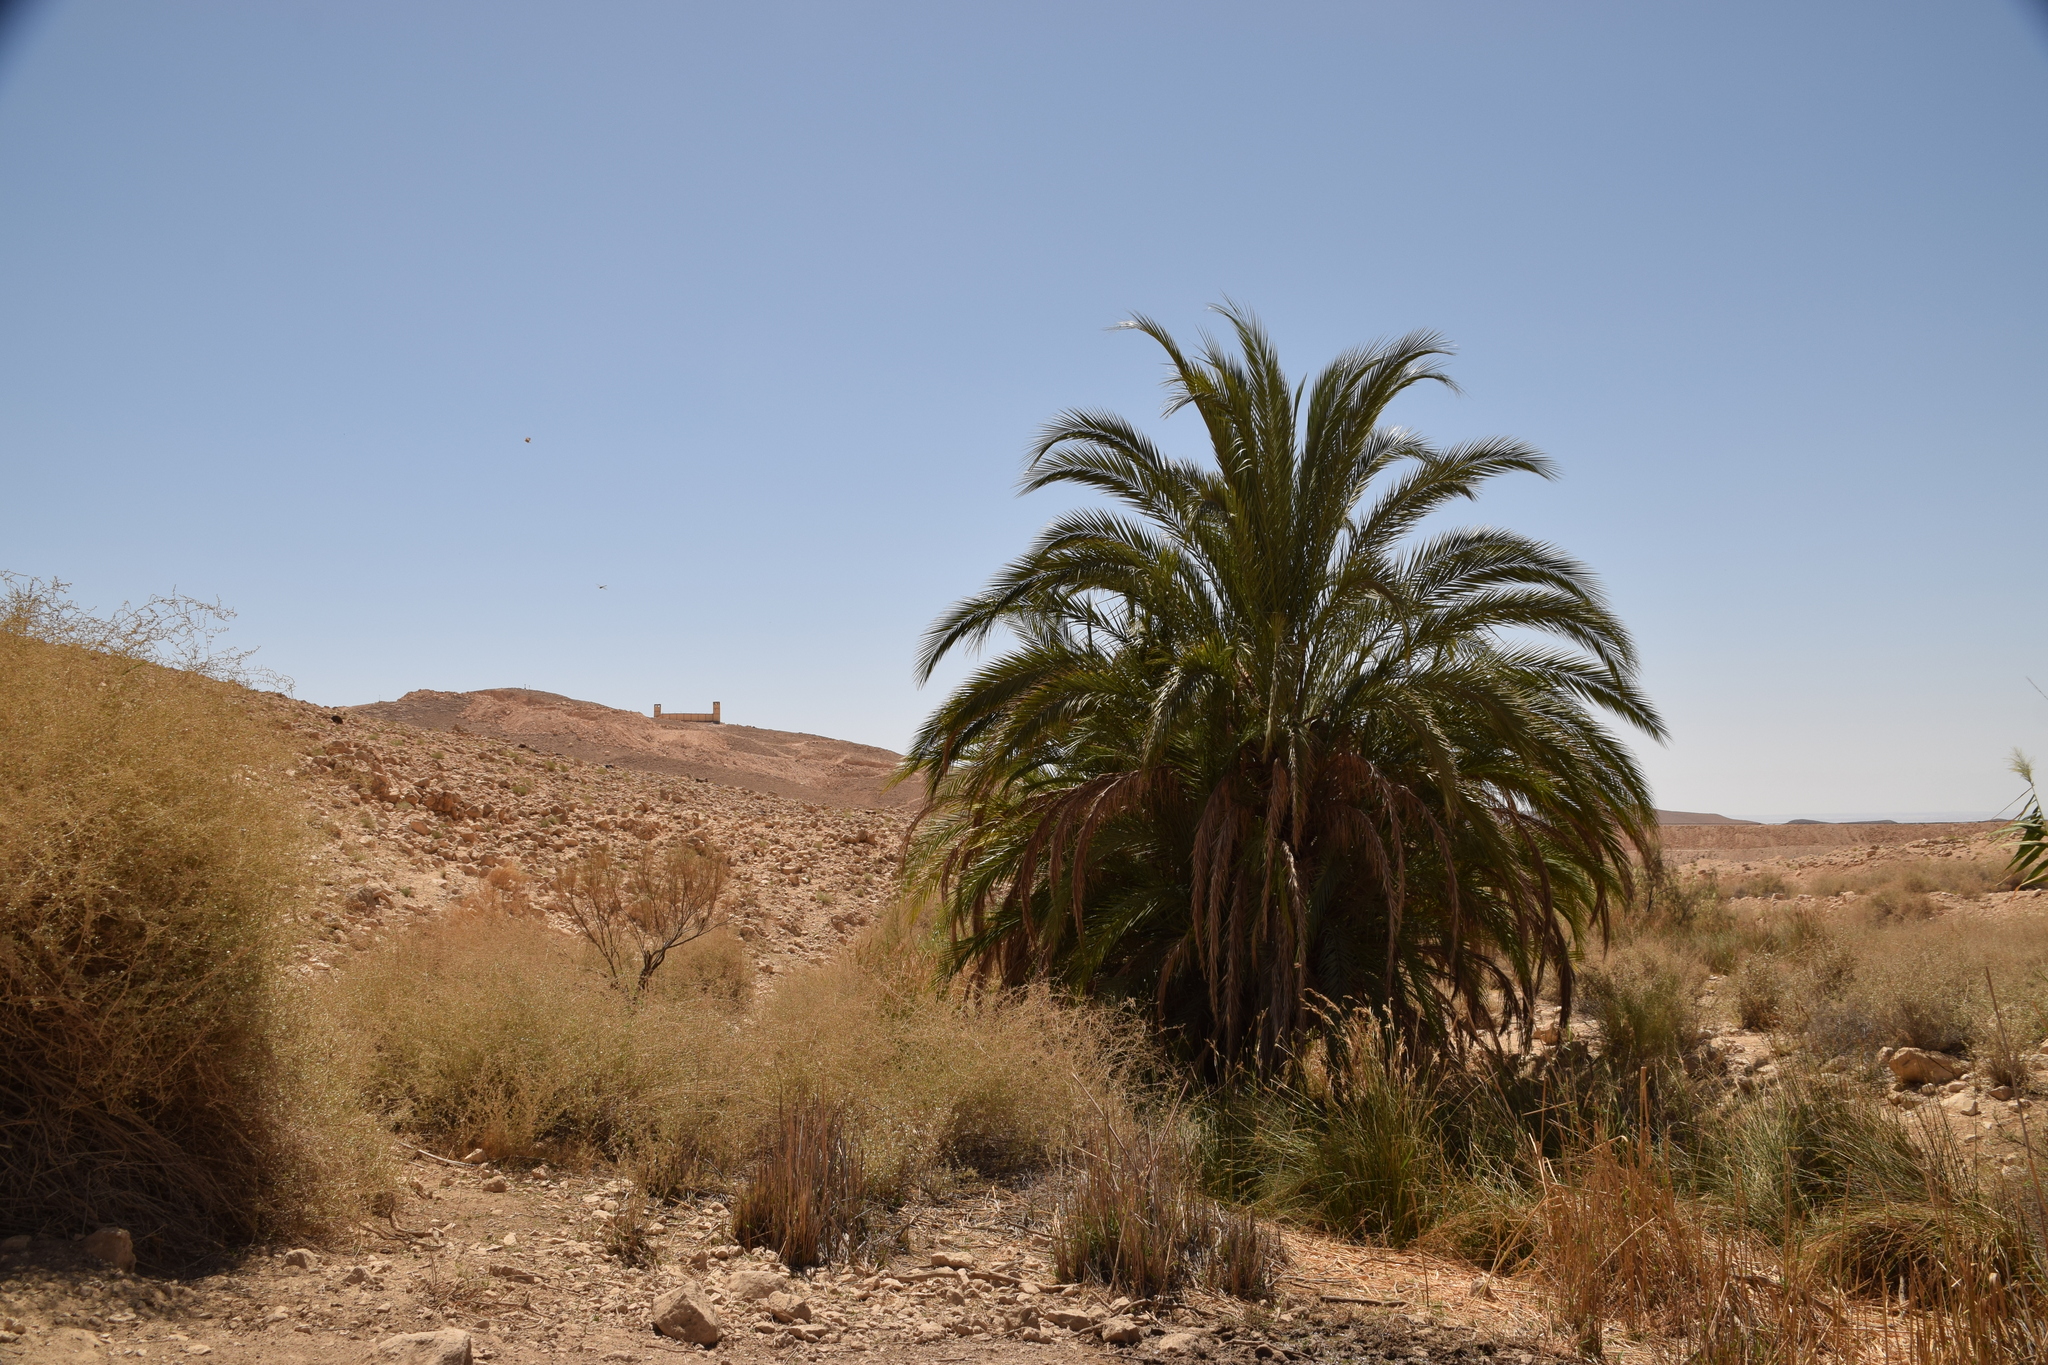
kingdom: Plantae
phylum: Tracheophyta
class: Liliopsida
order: Arecales
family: Arecaceae
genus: Phoenix
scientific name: Phoenix dactylifera
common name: Date palm
